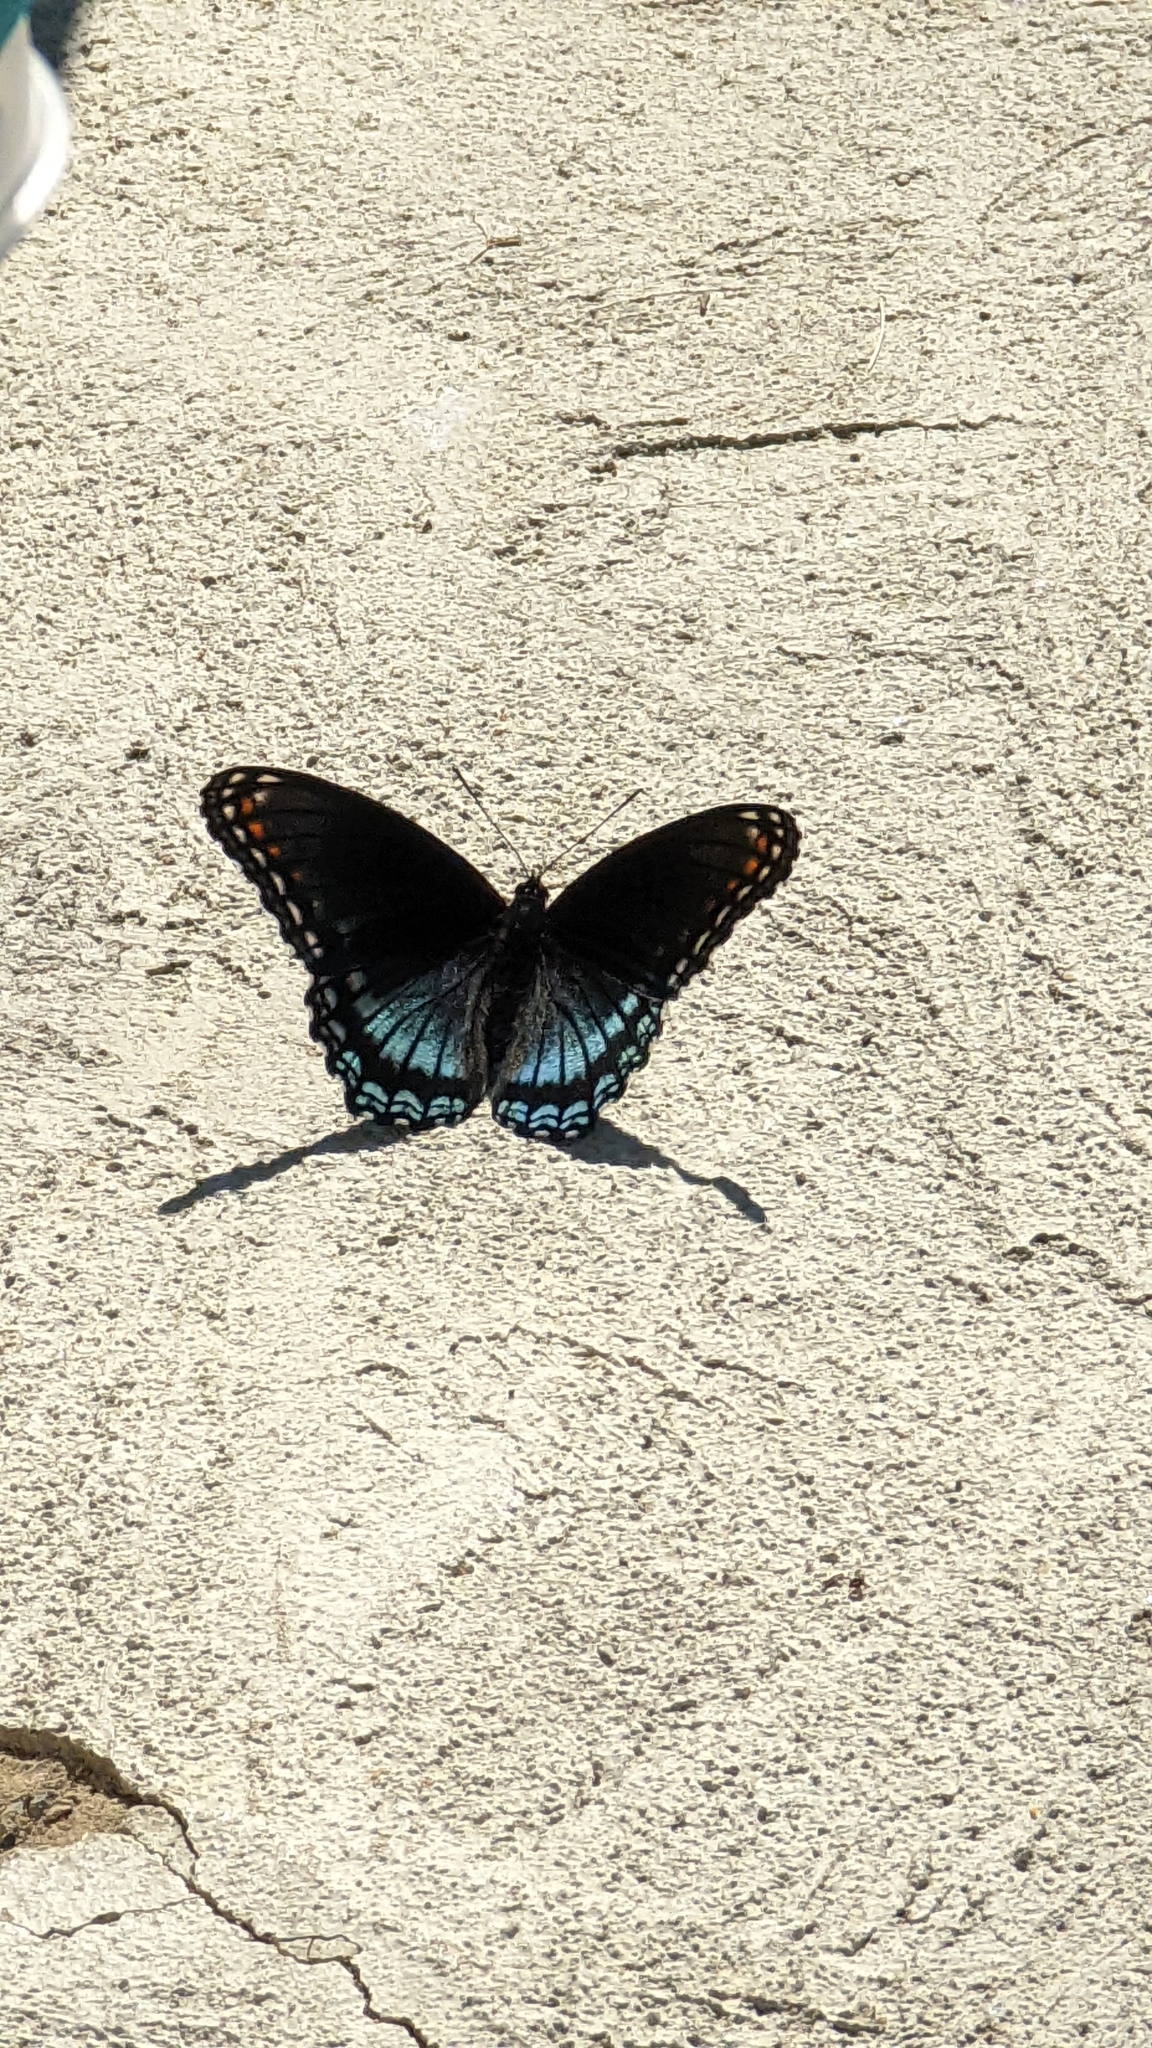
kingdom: Animalia
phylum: Arthropoda
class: Insecta
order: Lepidoptera
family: Nymphalidae
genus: Limenitis
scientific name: Limenitis arthemis
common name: Red-spotted admiral
